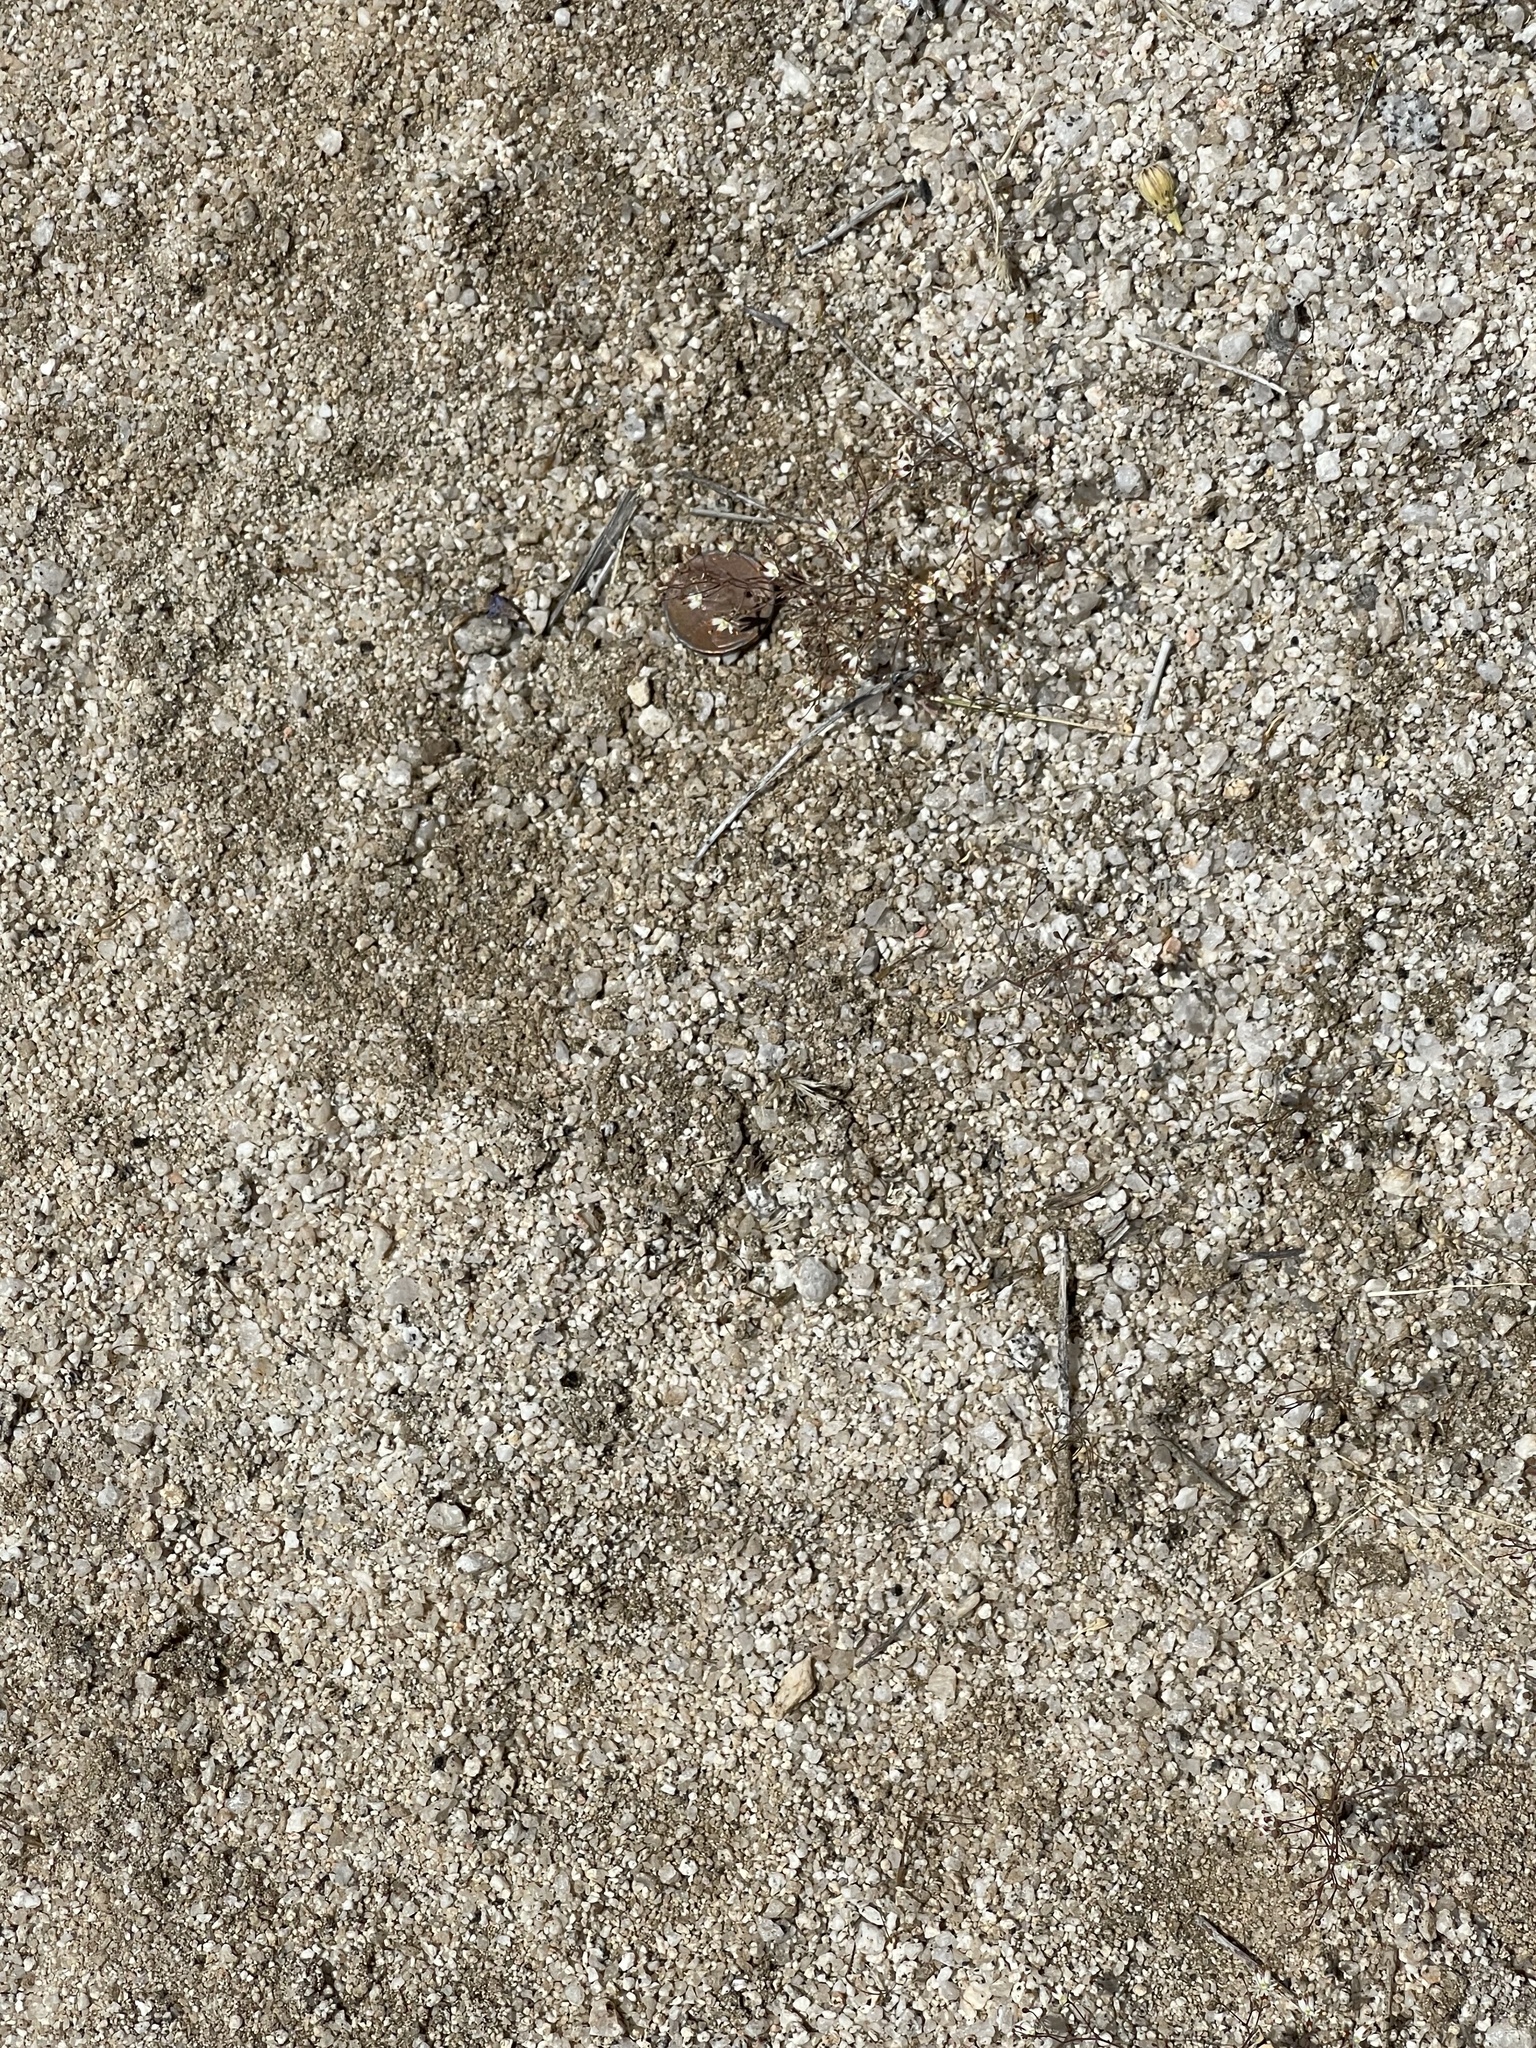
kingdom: Plantae
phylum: Tracheophyta
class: Magnoliopsida
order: Asterales
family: Campanulaceae
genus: Nemacladus
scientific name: Nemacladus rubescens
